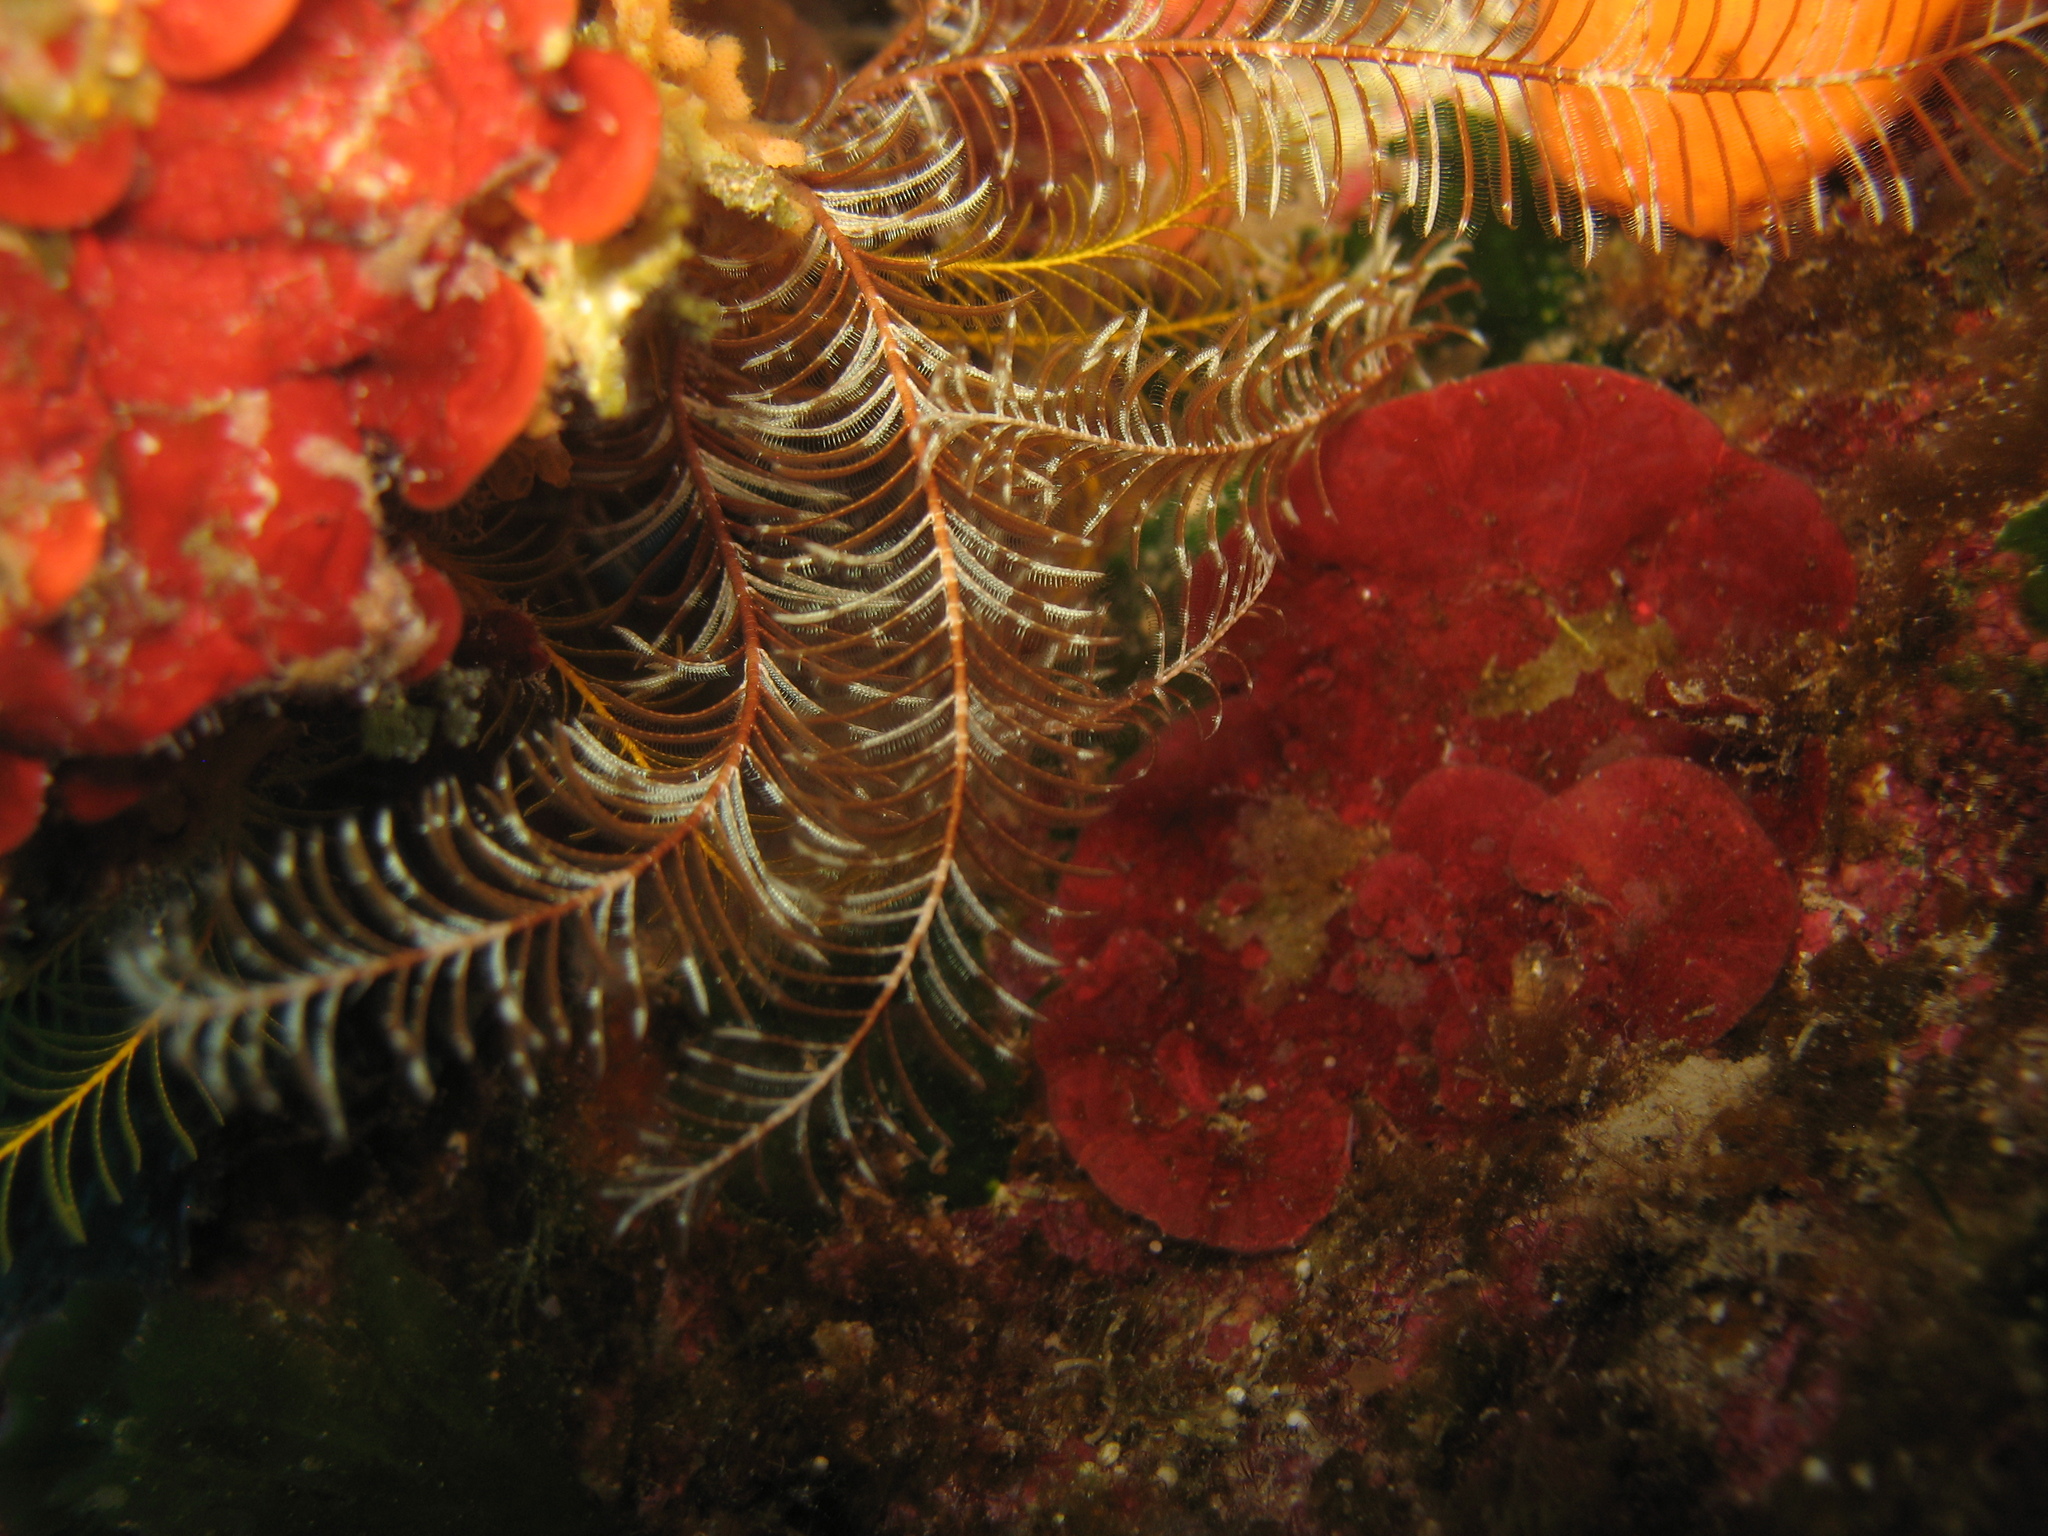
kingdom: Animalia
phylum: Echinodermata
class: Crinoidea
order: Comatulida
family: Antedonidae
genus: Antedon
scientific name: Antedon mediterranea
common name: Feather star
